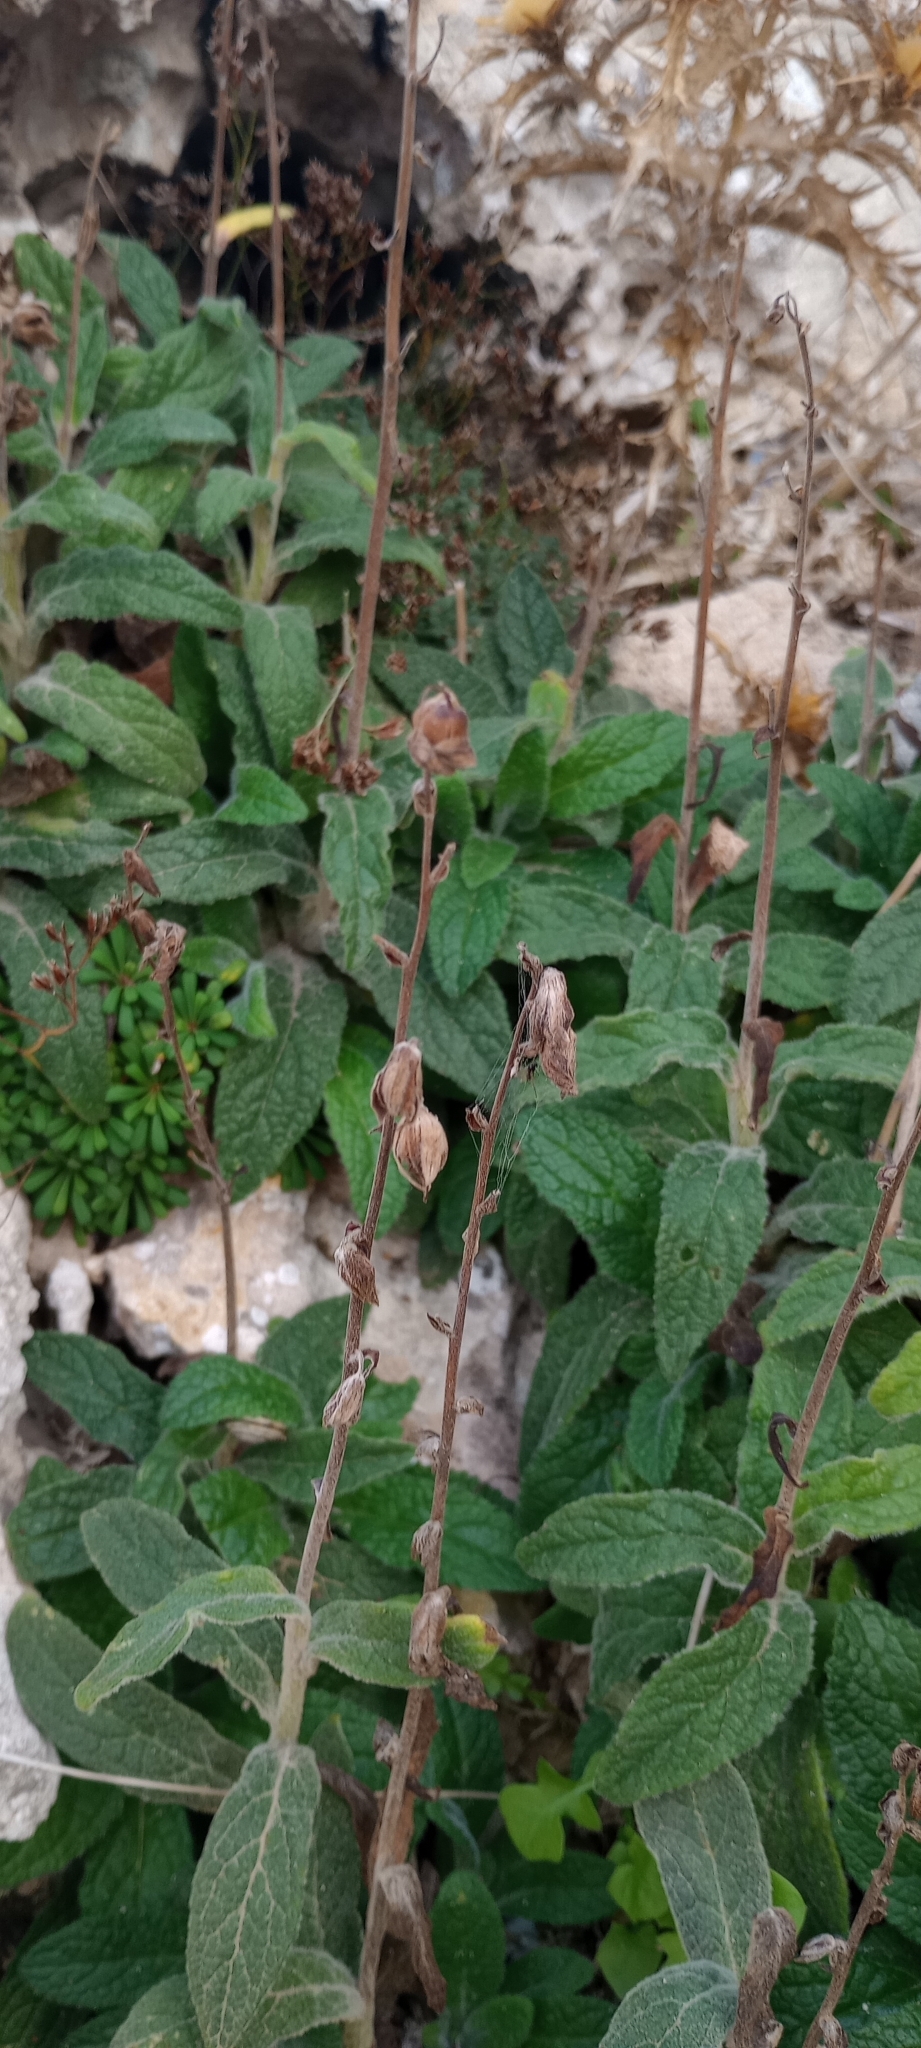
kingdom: Plantae
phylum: Tracheophyta
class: Magnoliopsida
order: Lamiales
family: Plantaginaceae
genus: Digitalis
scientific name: Digitalis minor
